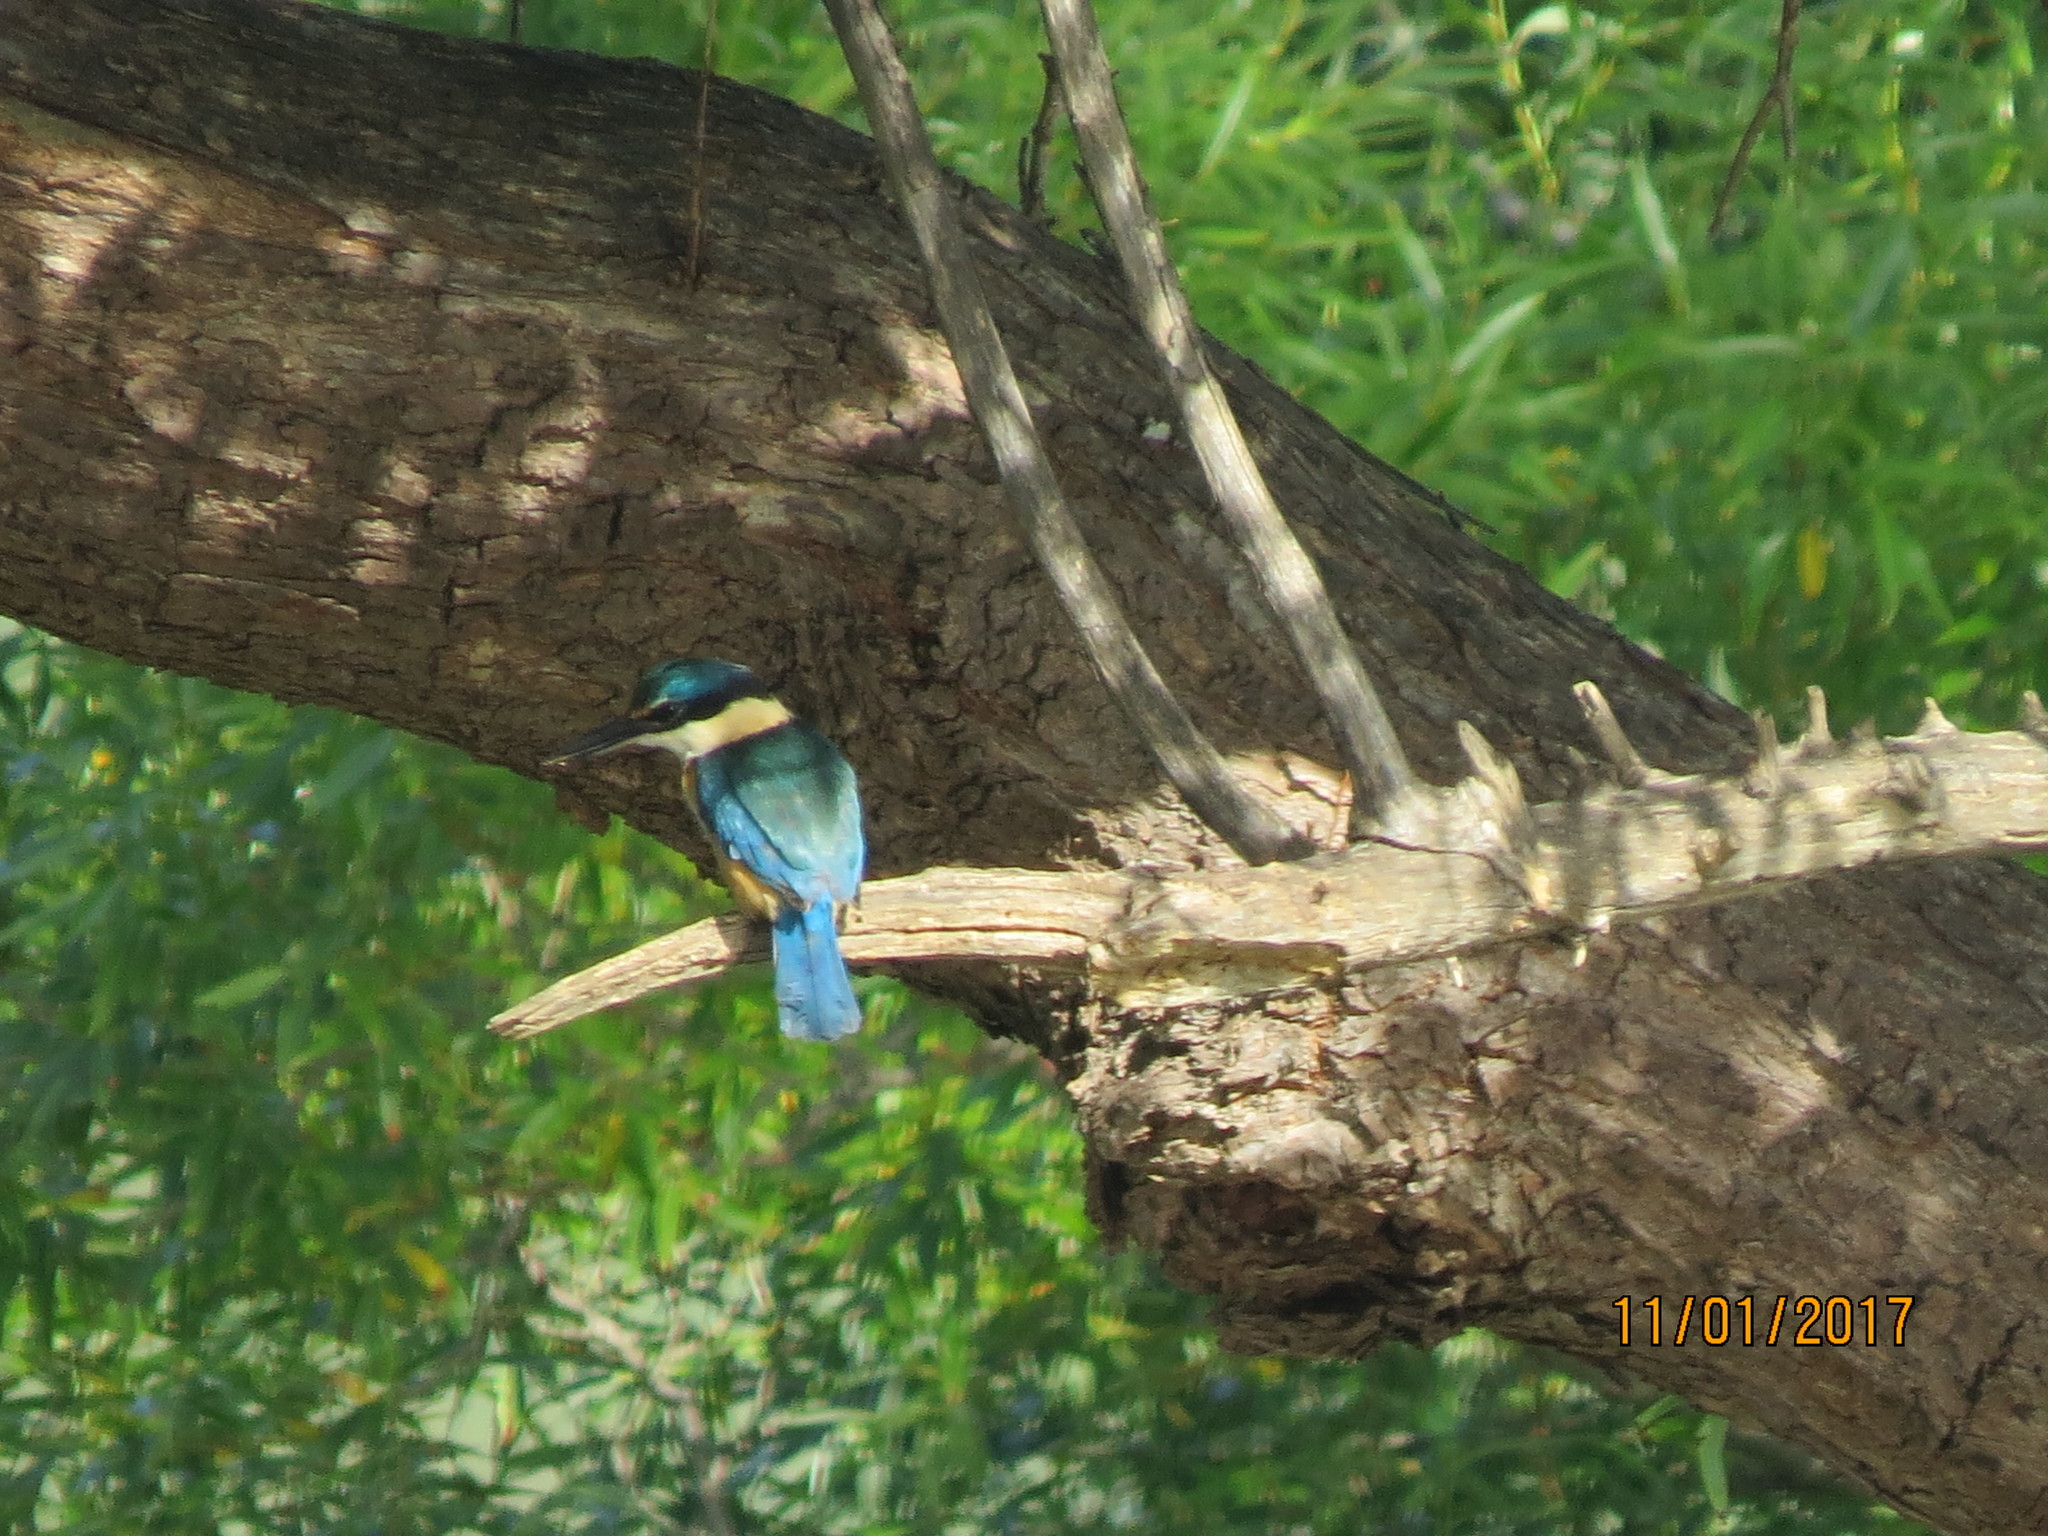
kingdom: Animalia
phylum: Chordata
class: Aves
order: Coraciiformes
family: Alcedinidae
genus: Todiramphus
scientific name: Todiramphus sanctus
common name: Sacred kingfisher
